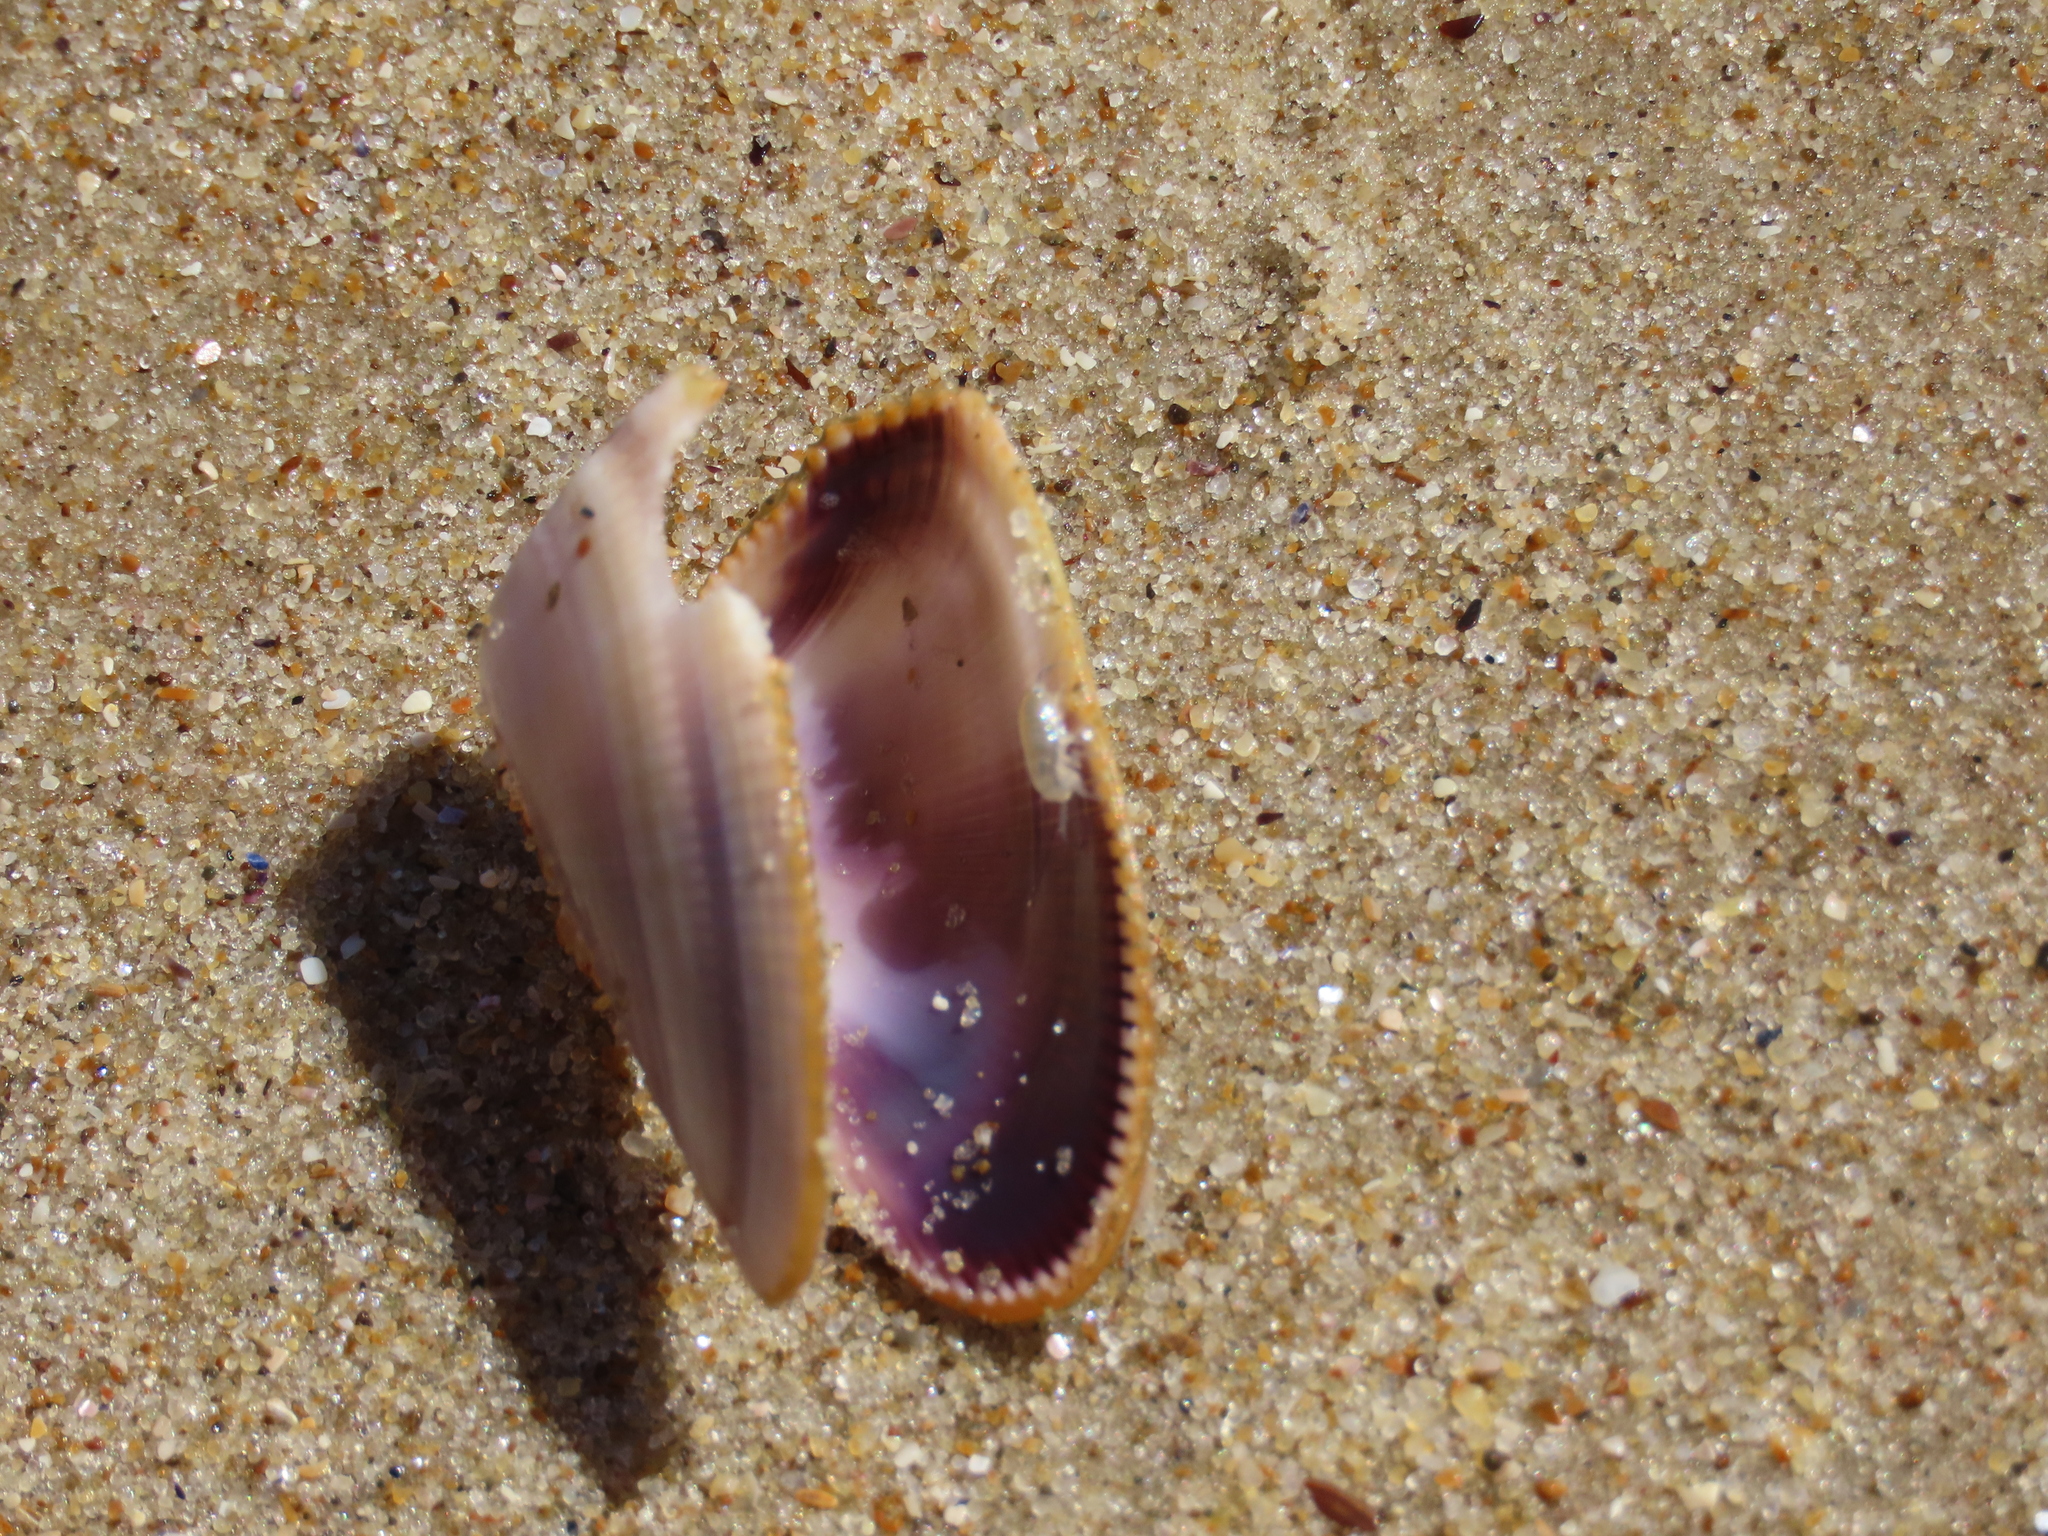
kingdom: Animalia
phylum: Mollusca
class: Bivalvia
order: Cardiida
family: Donacidae
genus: Donax
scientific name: Donax hanleyanus
